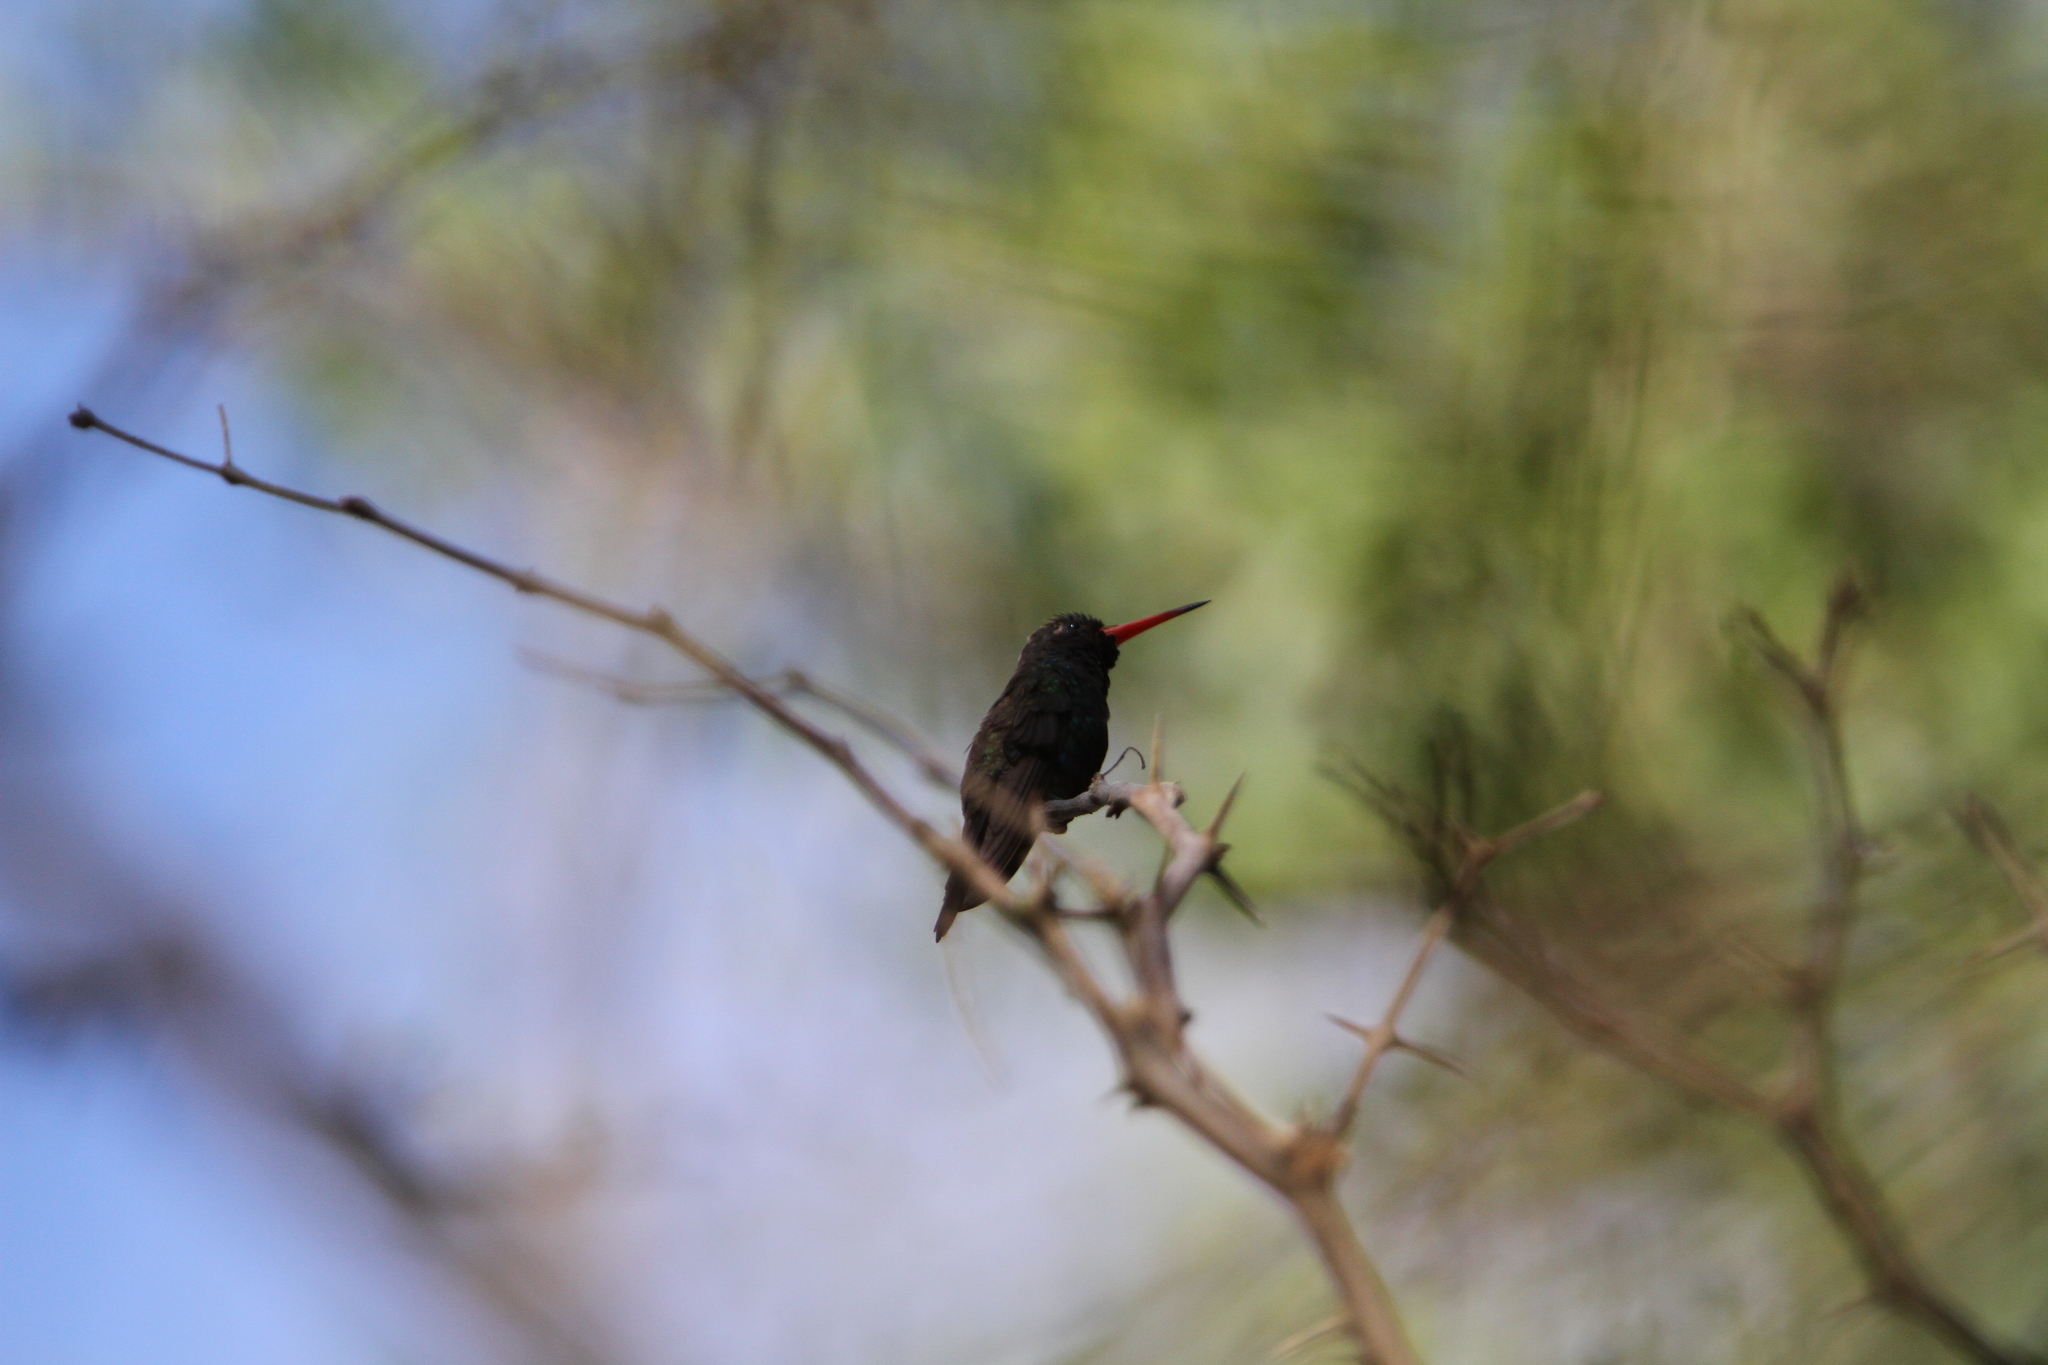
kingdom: Animalia
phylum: Chordata
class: Aves
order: Apodiformes
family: Trochilidae
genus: Cynanthus
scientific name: Cynanthus doubledayi
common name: Doubleday's hummingbird
